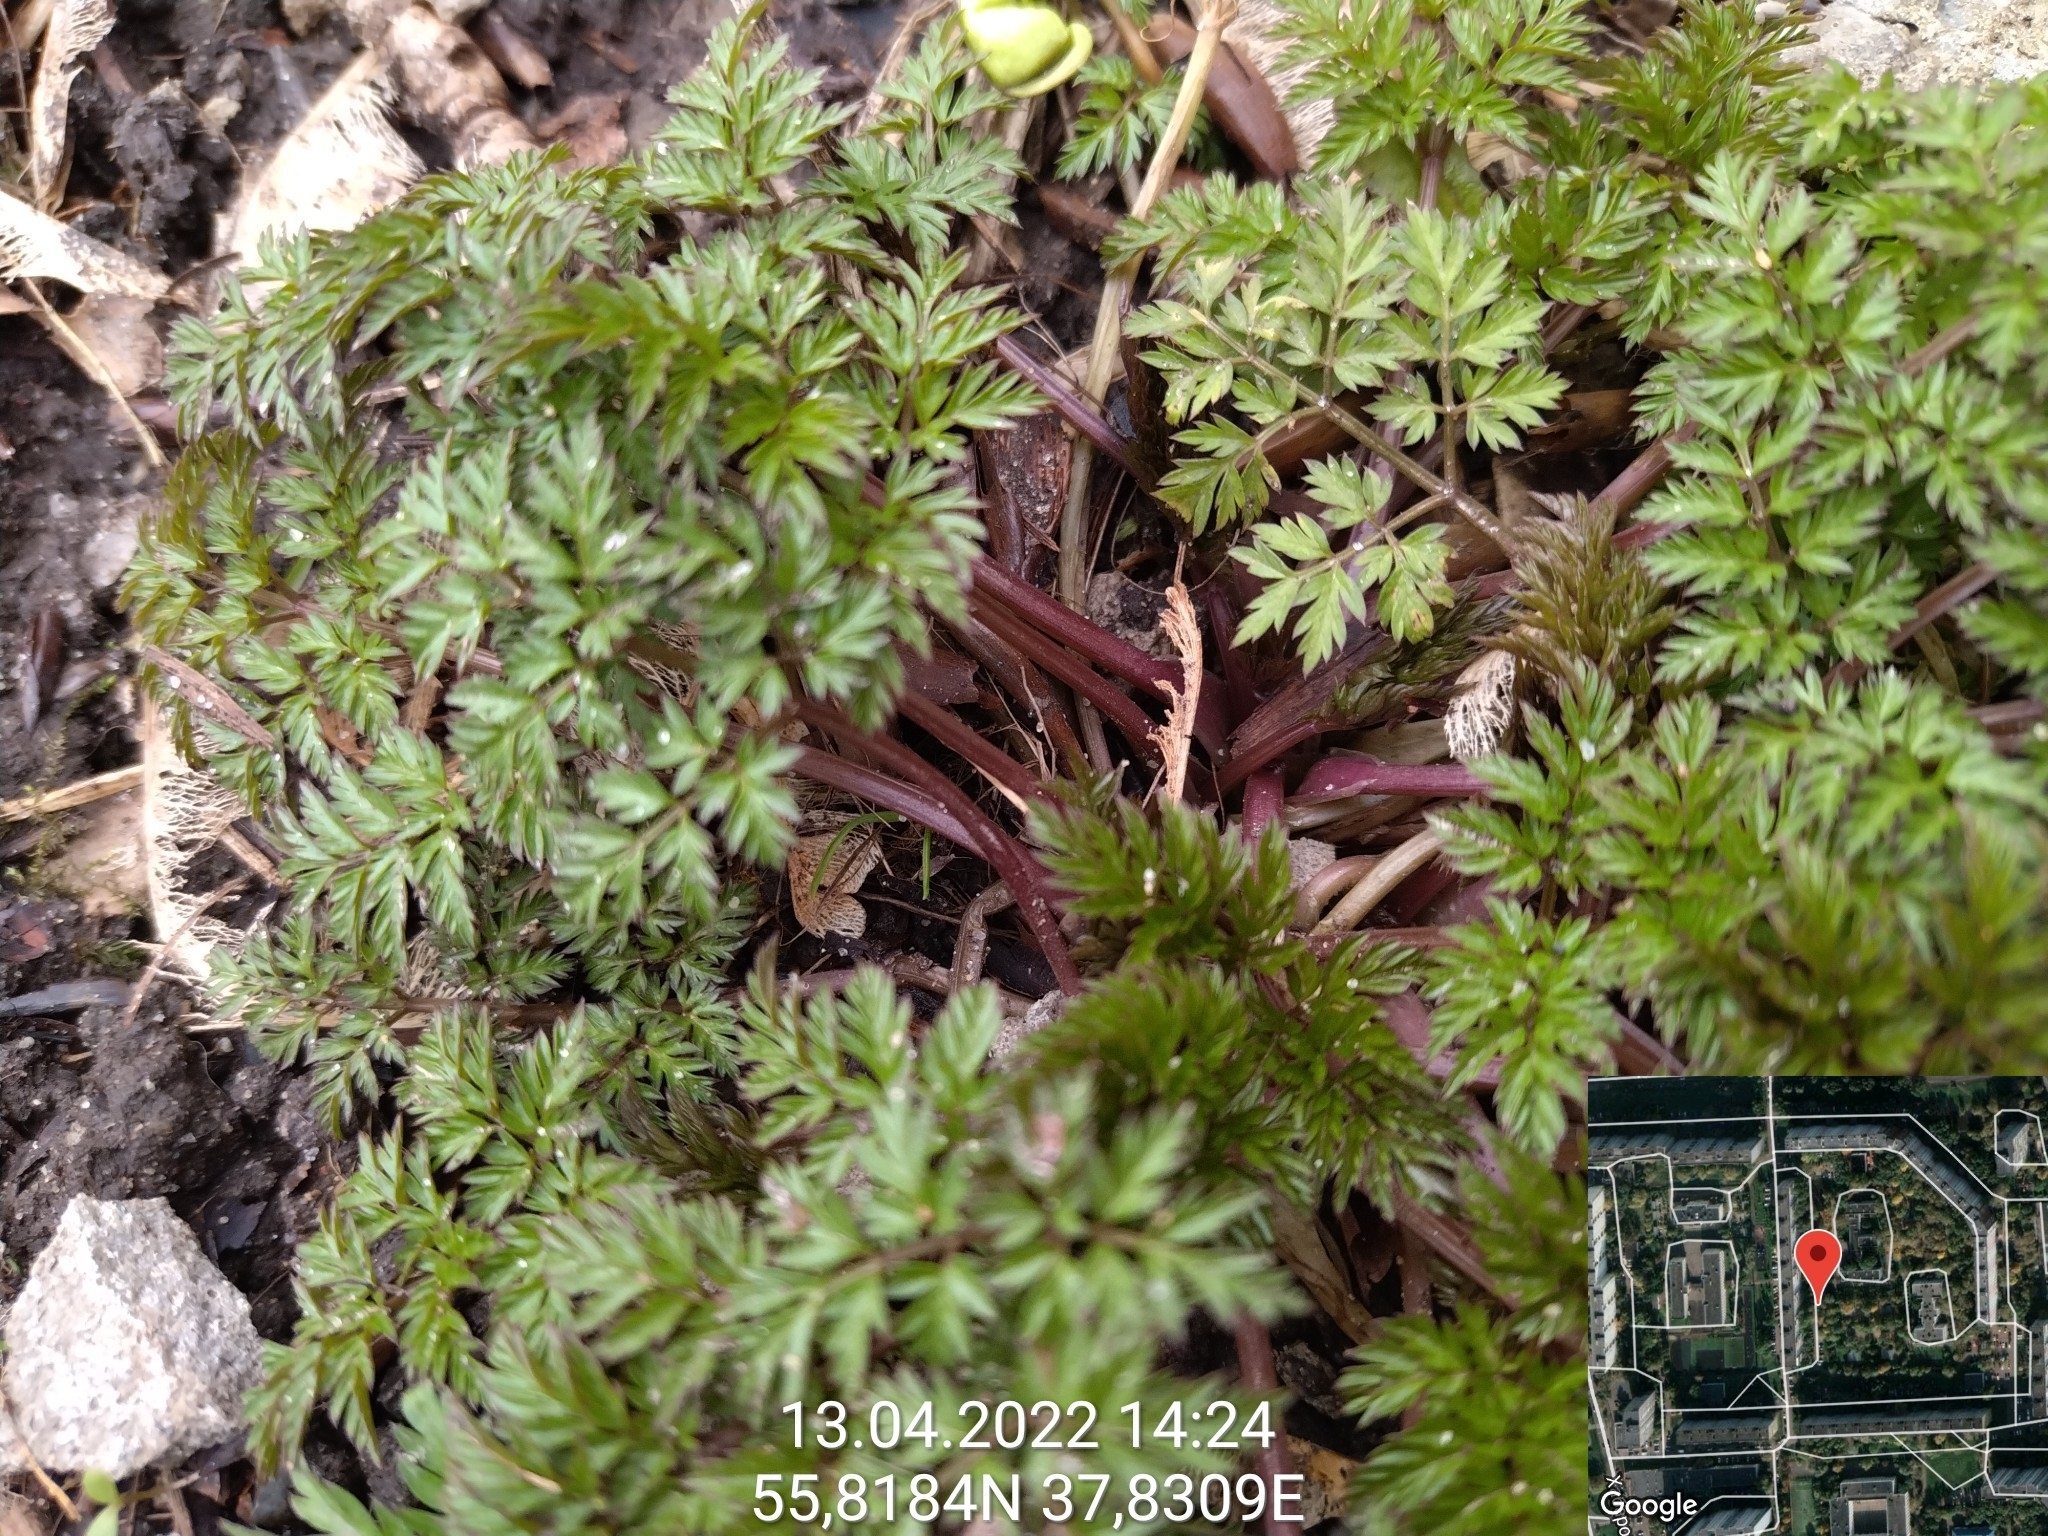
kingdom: Plantae
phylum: Tracheophyta
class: Magnoliopsida
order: Apiales
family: Apiaceae
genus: Anthriscus
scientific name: Anthriscus sylvestris
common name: Cow parsley
